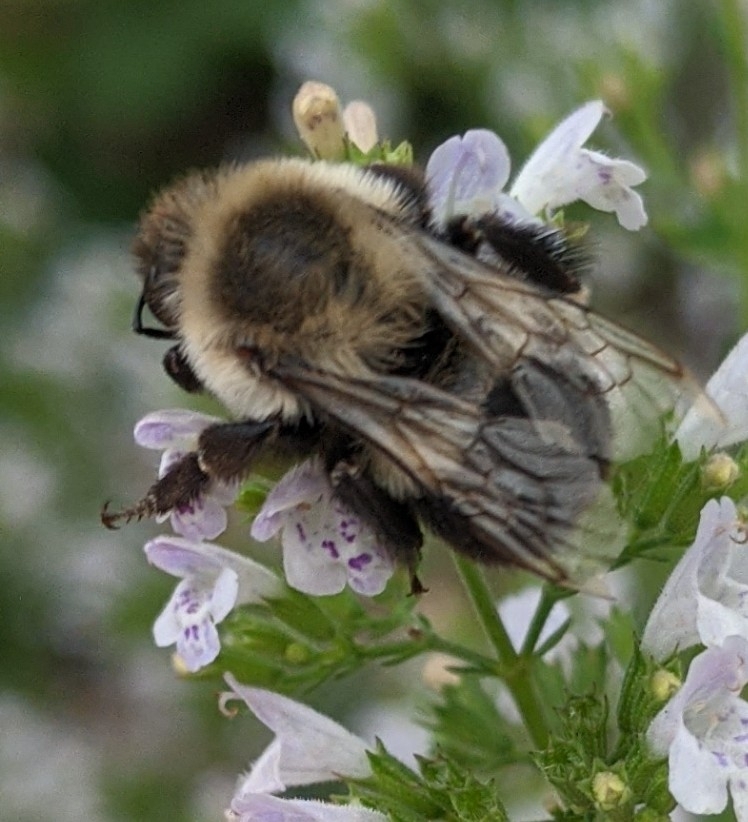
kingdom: Animalia
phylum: Arthropoda
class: Insecta
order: Hymenoptera
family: Apidae
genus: Bombus
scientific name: Bombus impatiens
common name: Common eastern bumble bee
